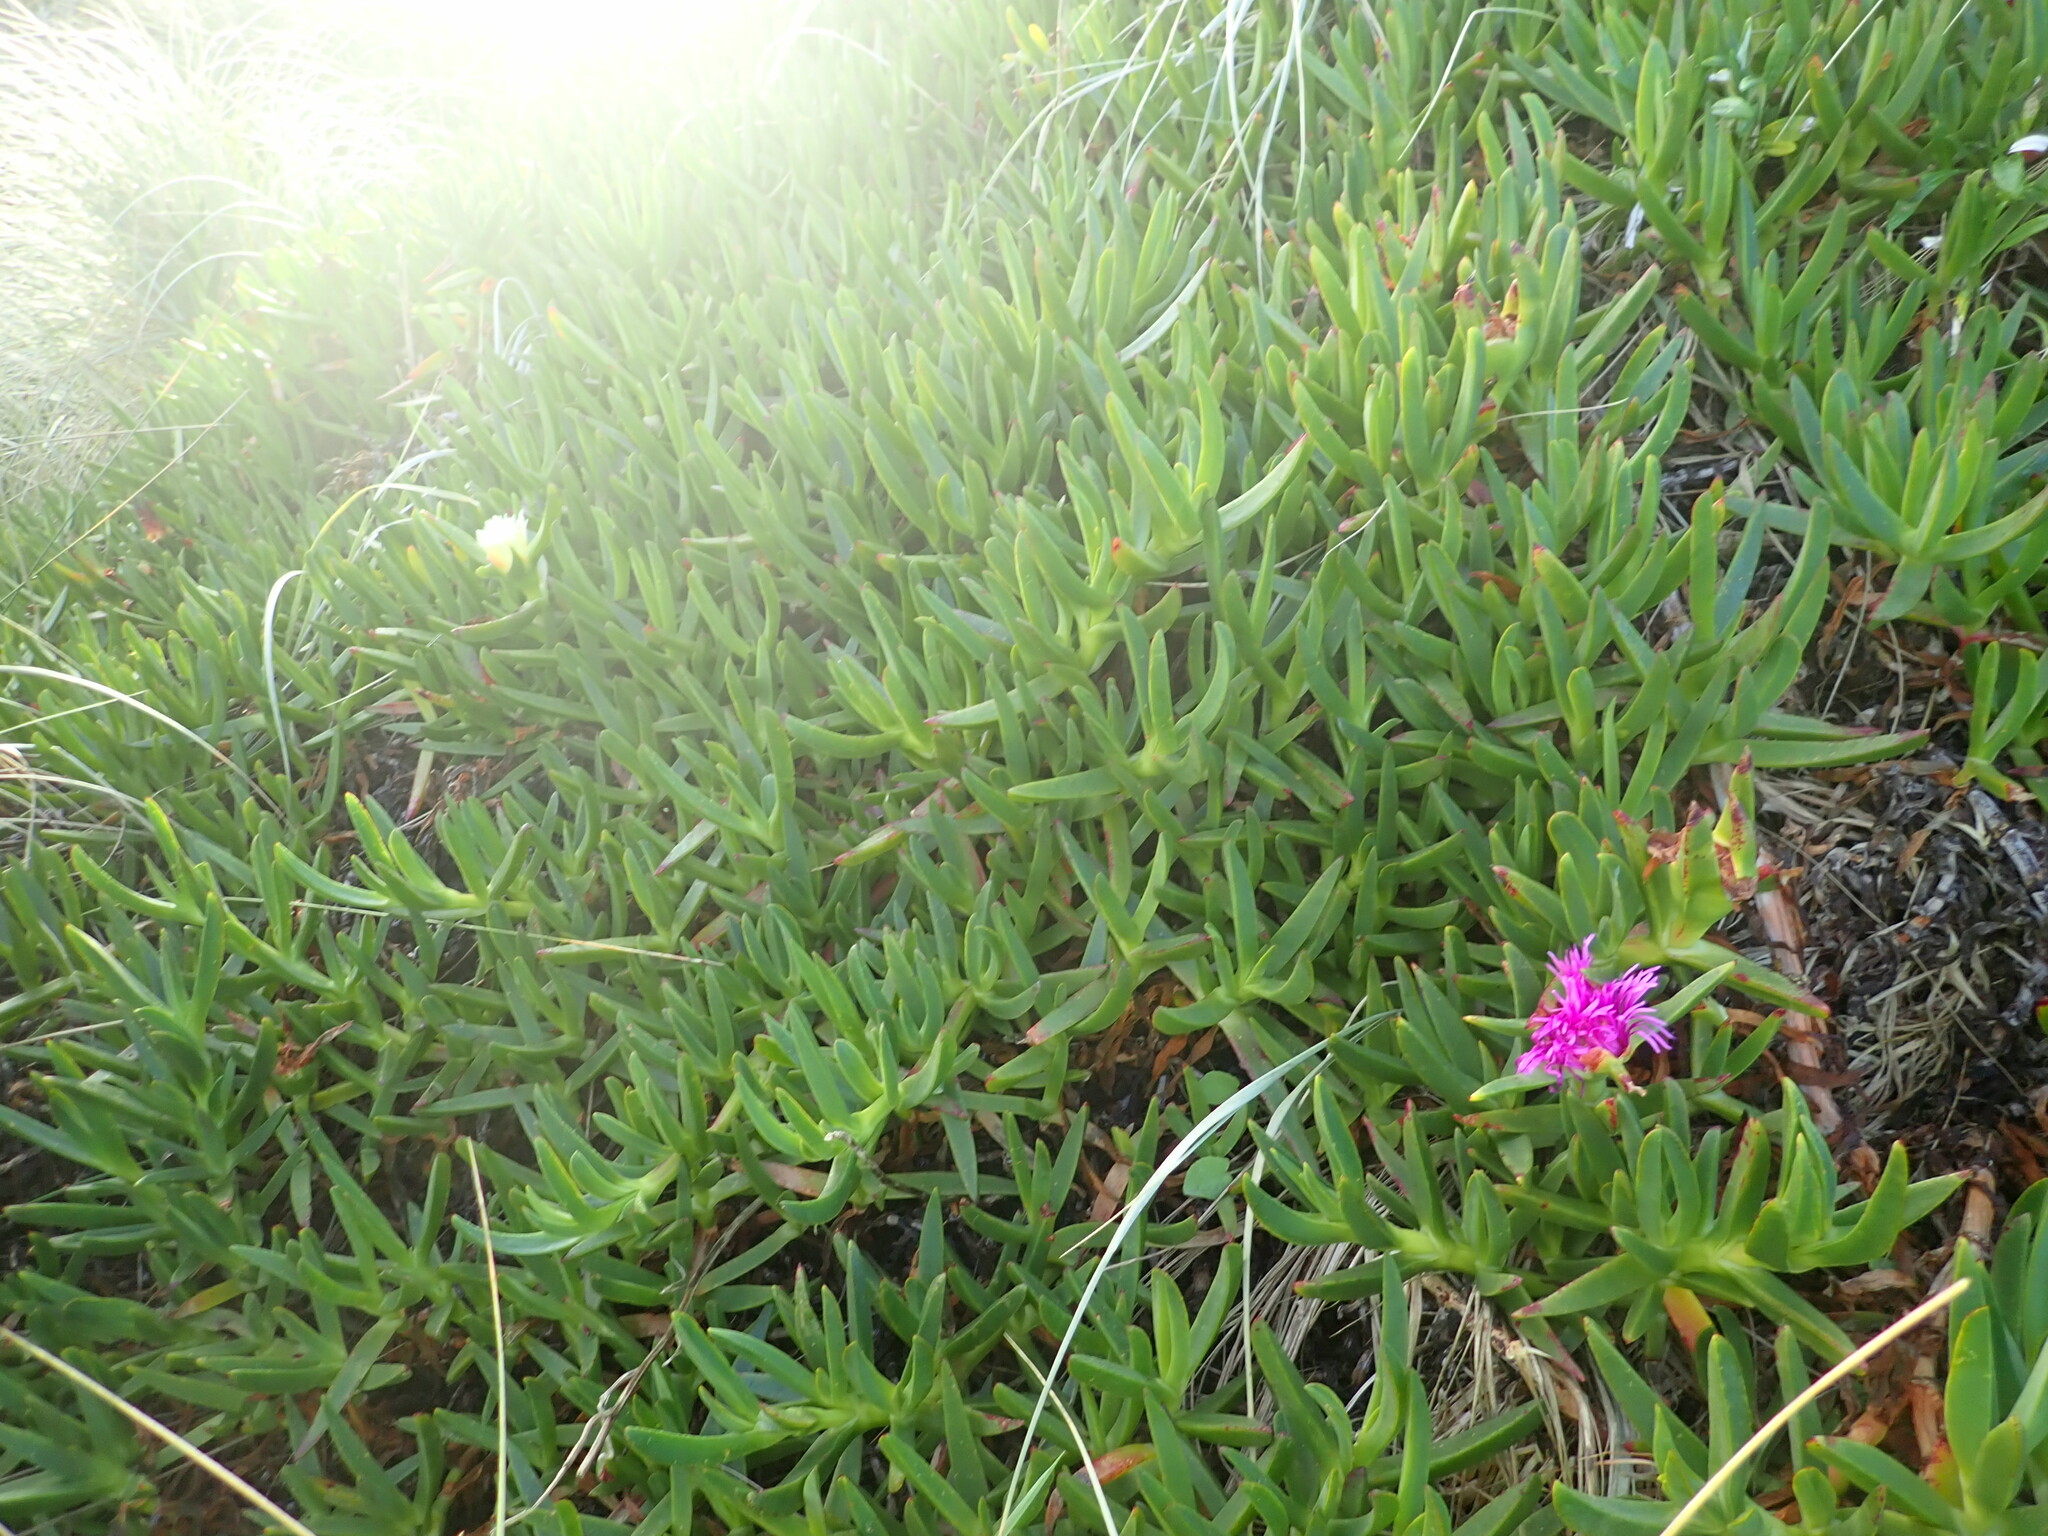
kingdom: Plantae
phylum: Tracheophyta
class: Magnoliopsida
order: Caryophyllales
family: Aizoaceae
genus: Carpobrotus
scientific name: Carpobrotus chilensis
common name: Sea fig
